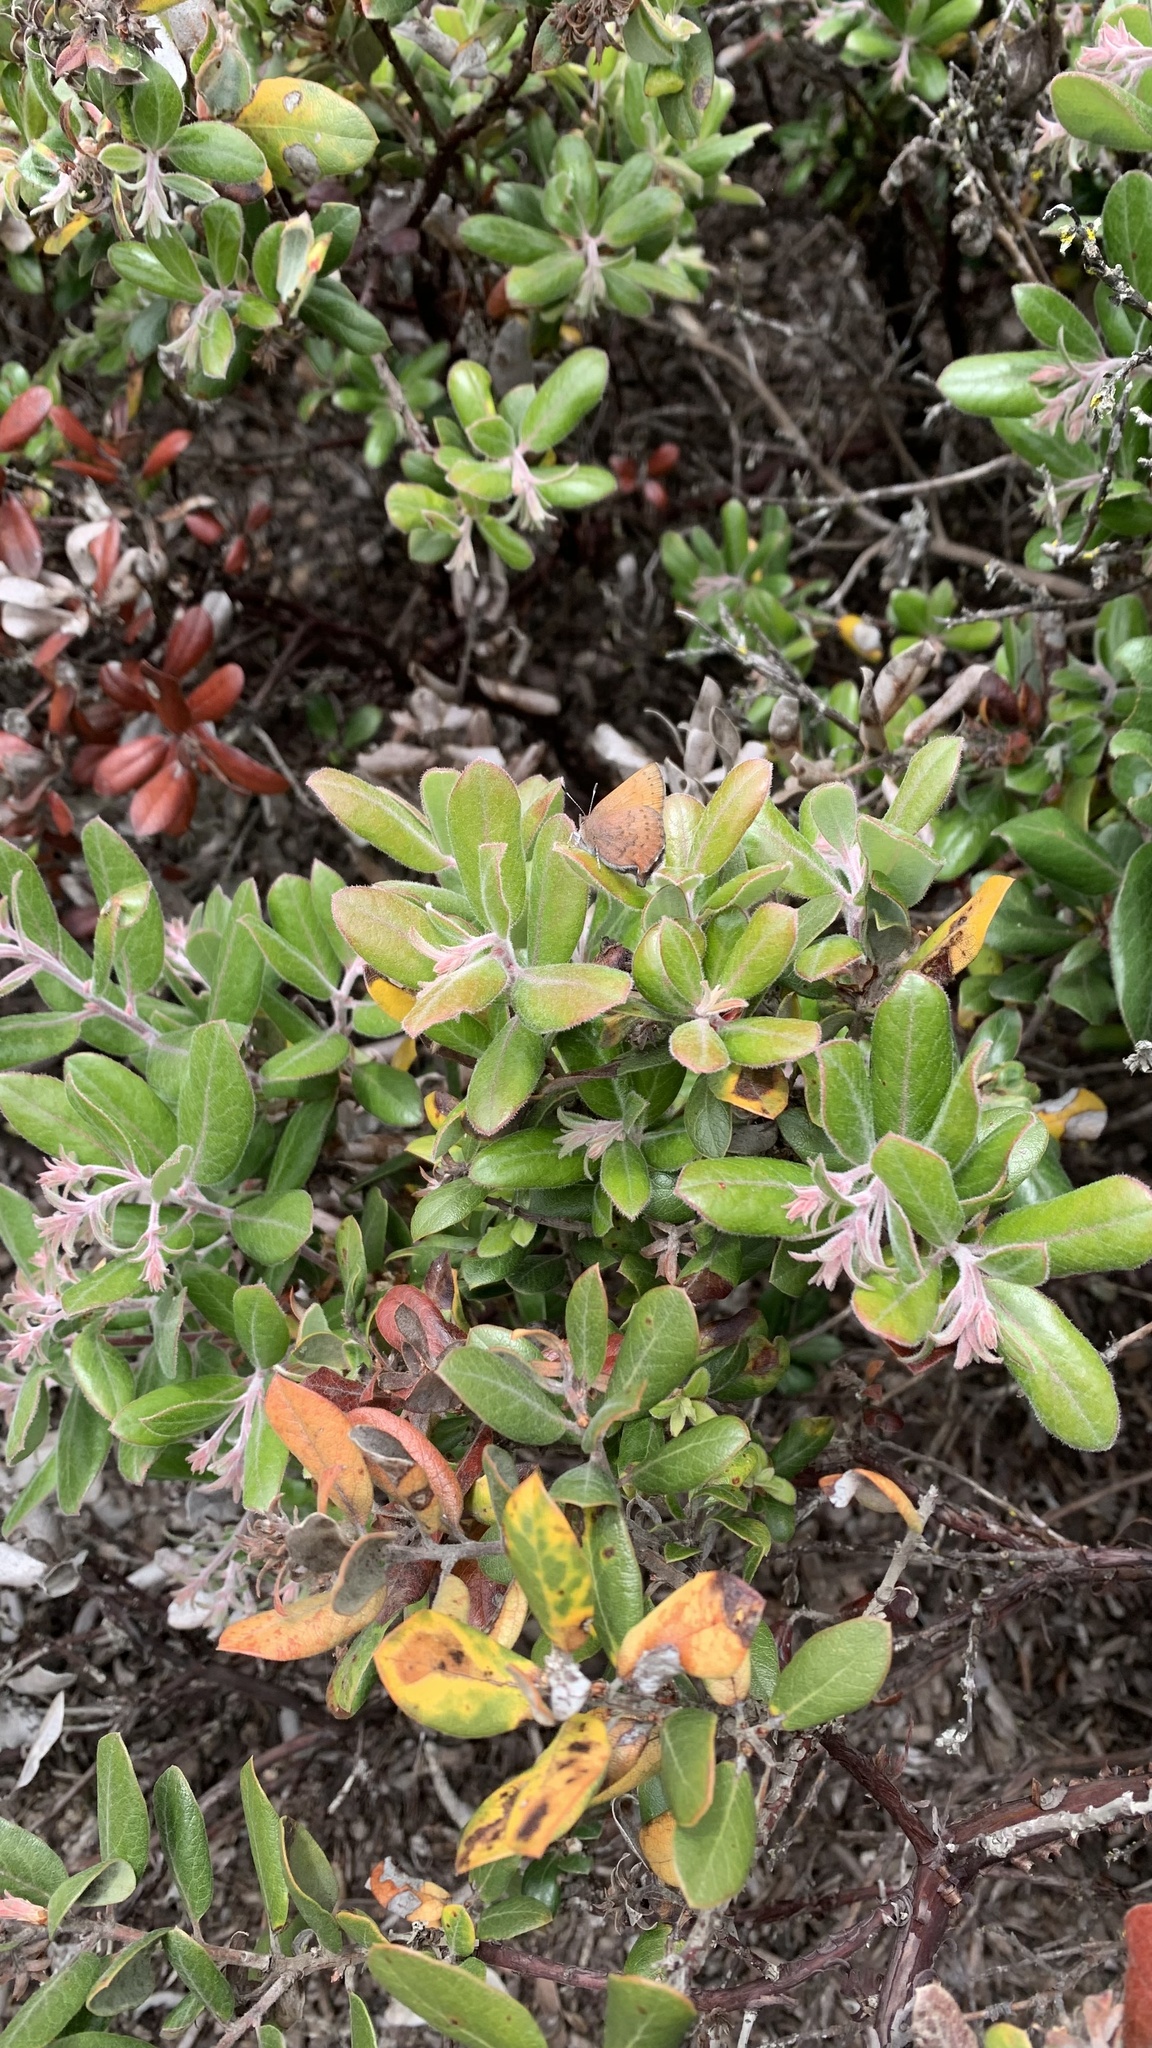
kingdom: Animalia
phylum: Arthropoda
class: Insecta
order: Lepidoptera
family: Lycaenidae
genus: Incisalia
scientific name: Incisalia irioides
